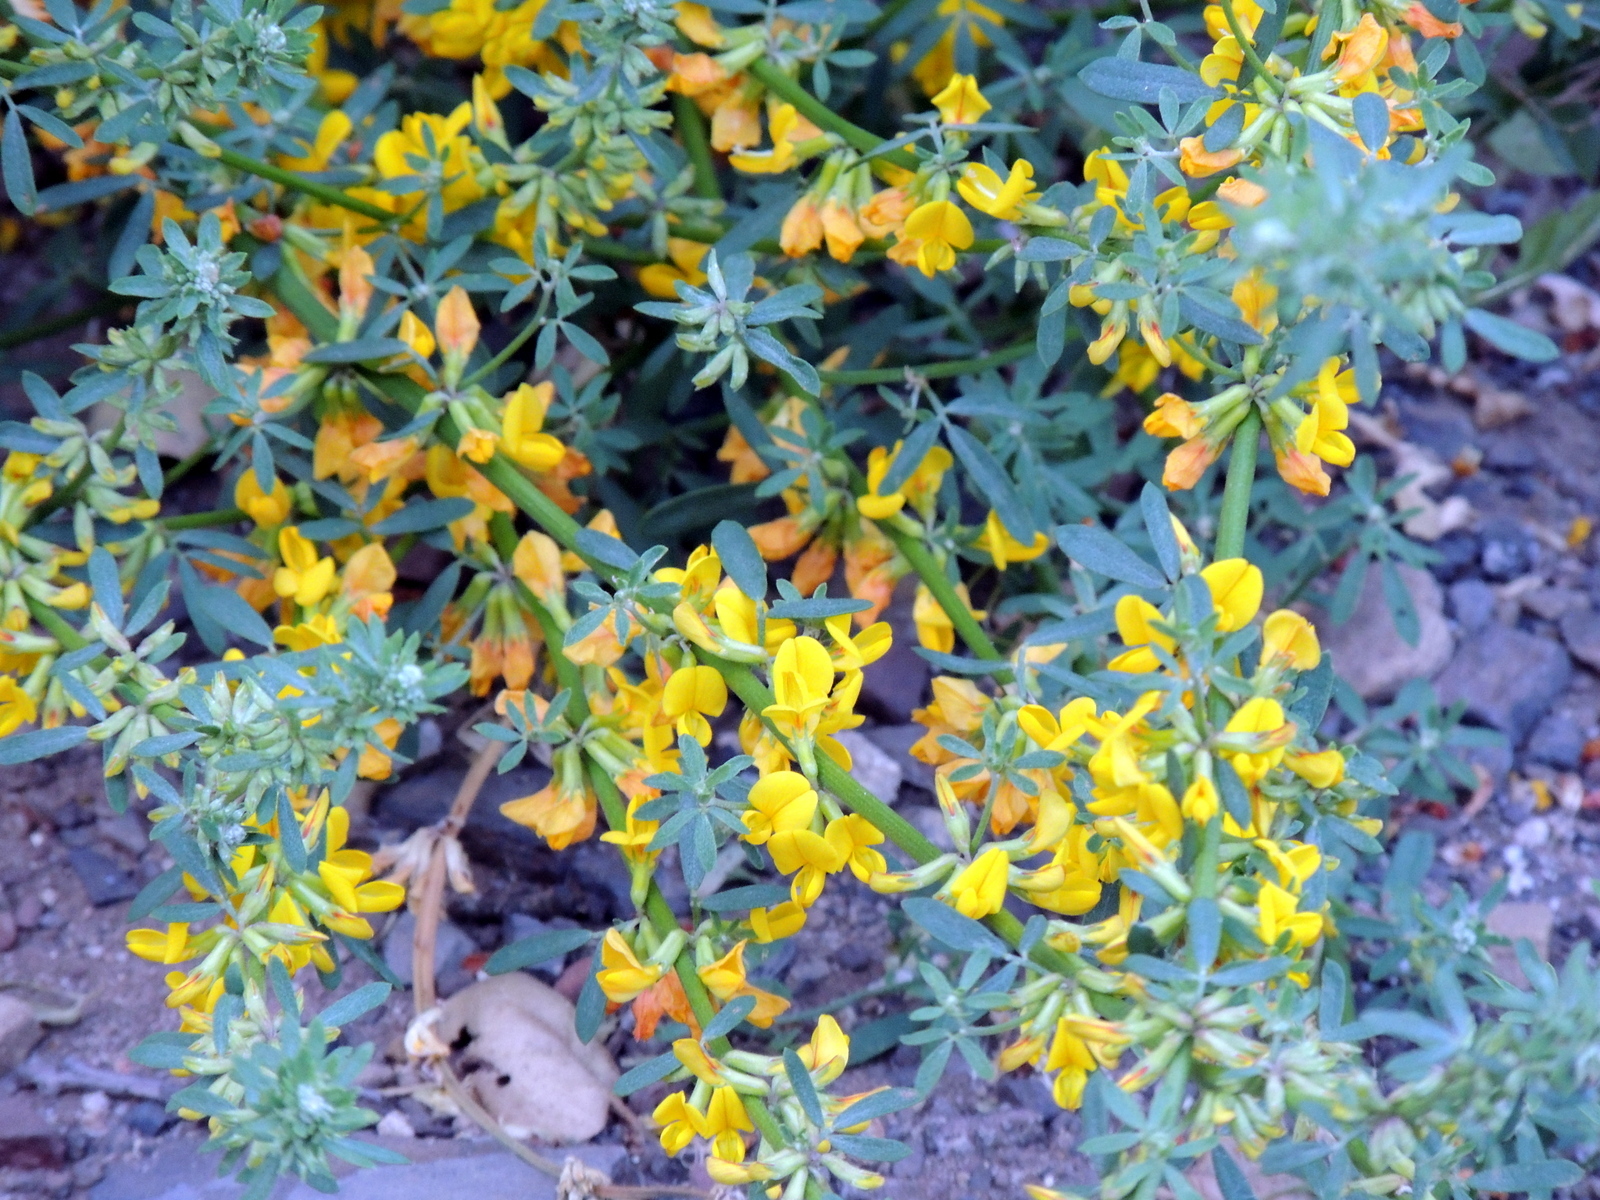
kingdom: Plantae
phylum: Tracheophyta
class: Magnoliopsida
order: Fabales
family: Fabaceae
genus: Acmispon
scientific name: Acmispon glaber
